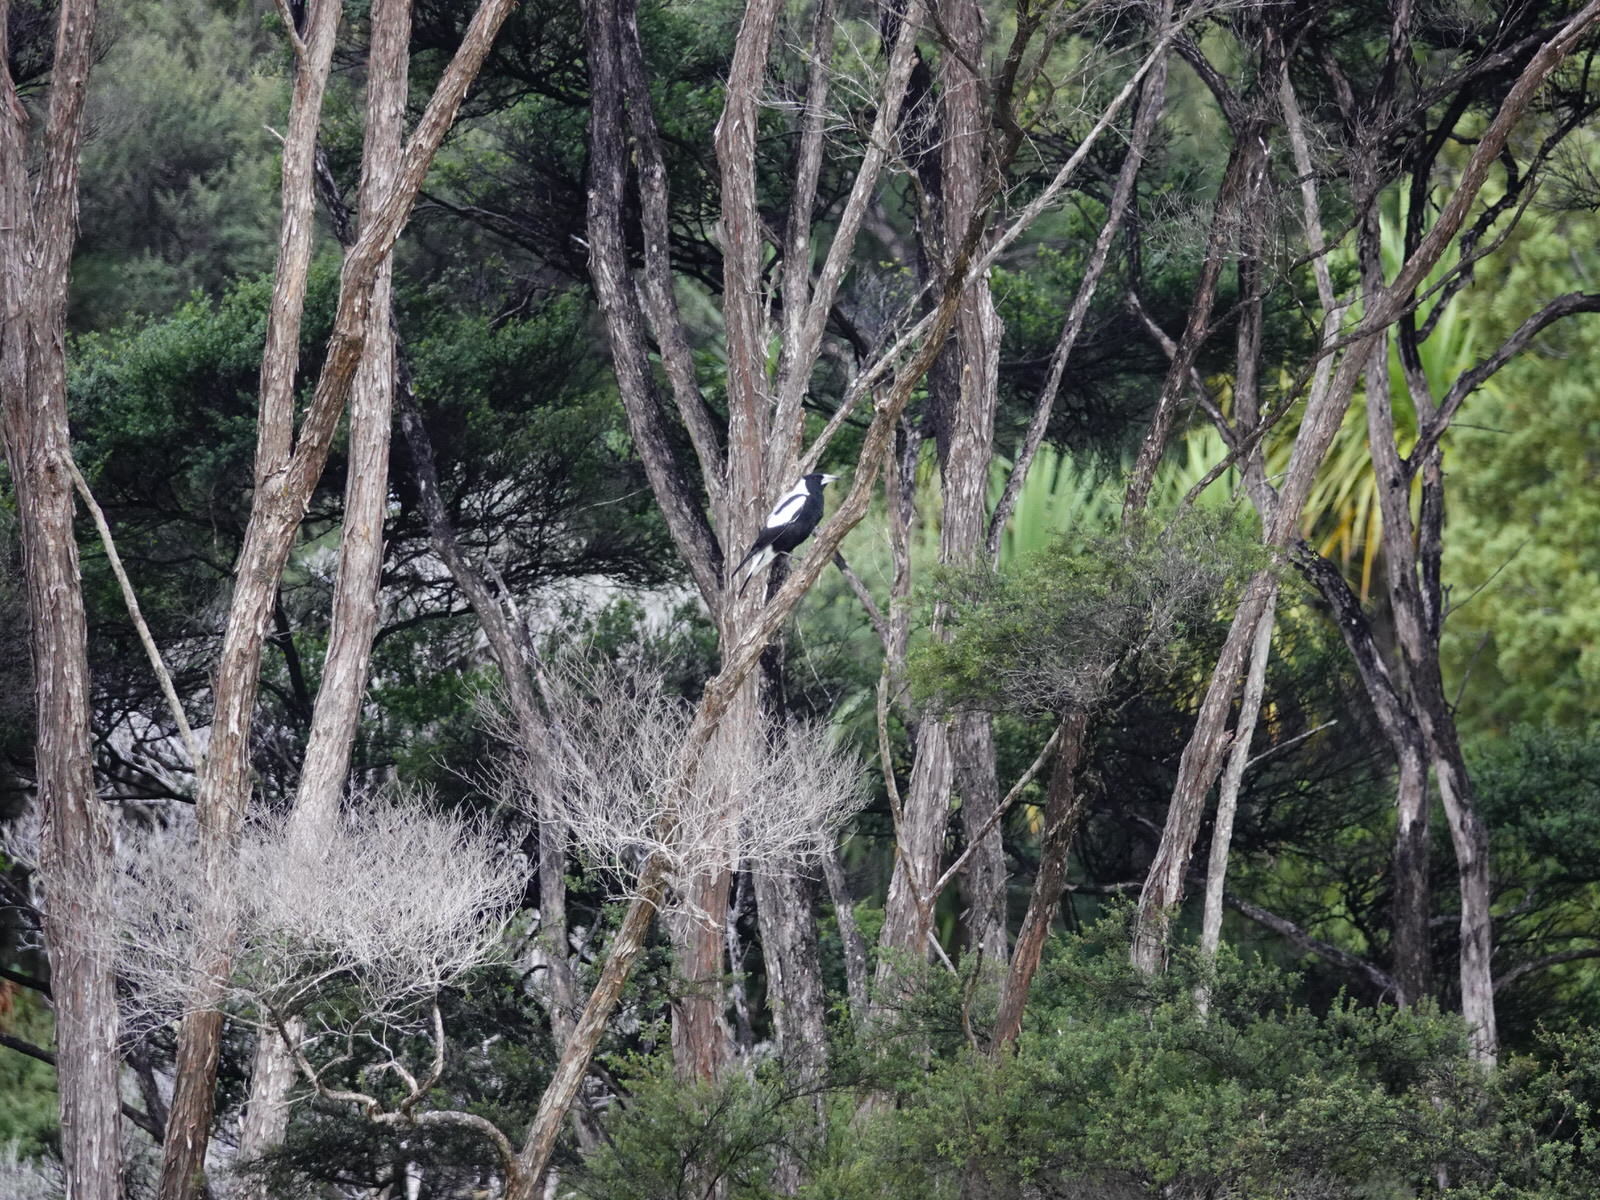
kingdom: Animalia
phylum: Chordata
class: Aves
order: Passeriformes
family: Cracticidae
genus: Gymnorhina
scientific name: Gymnorhina tibicen
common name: Australian magpie
